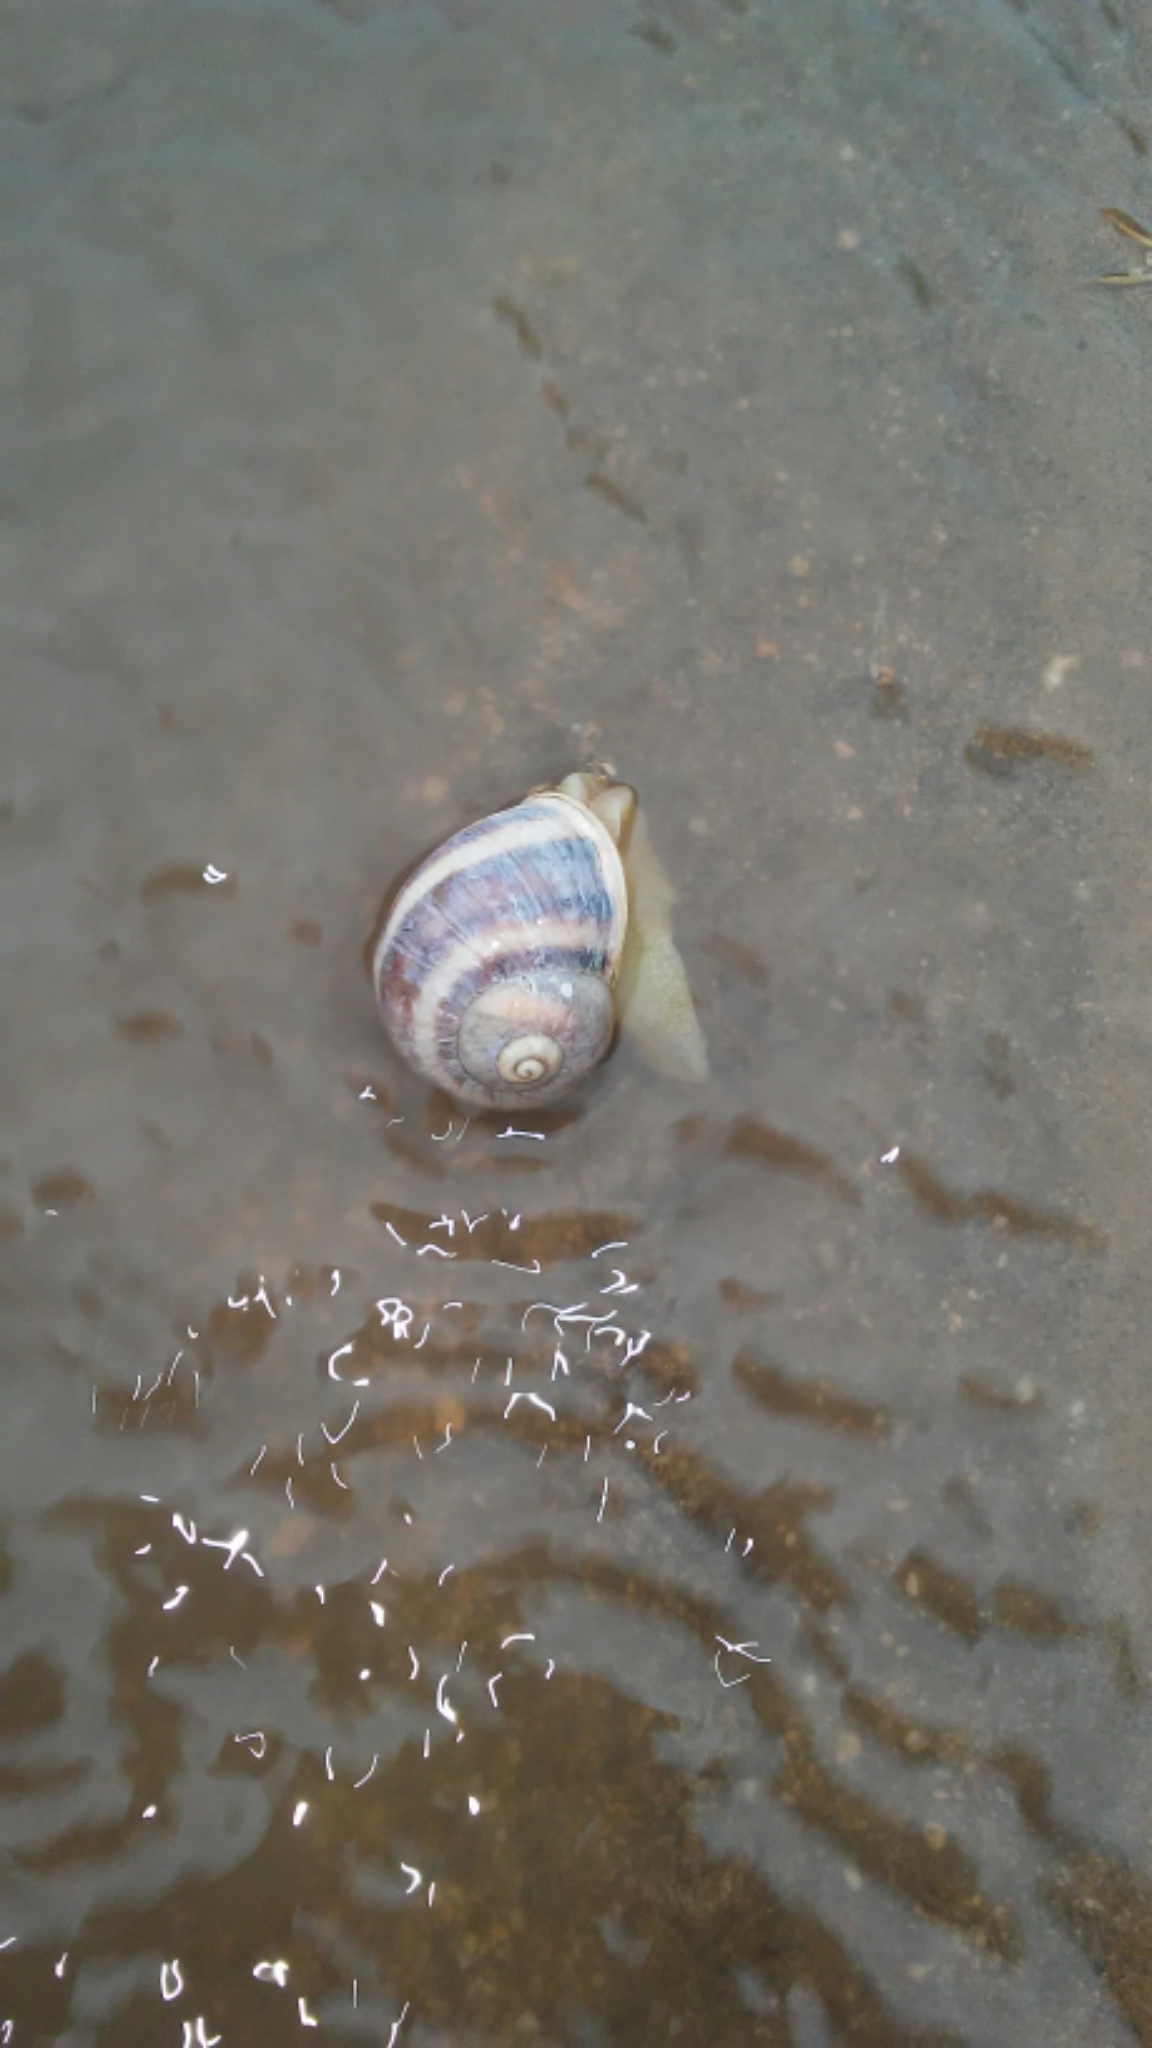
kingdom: Animalia
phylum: Mollusca
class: Gastropoda
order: Stylommatophora
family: Helicidae
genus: Cornu
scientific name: Cornu aspersum
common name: Brown garden snail
